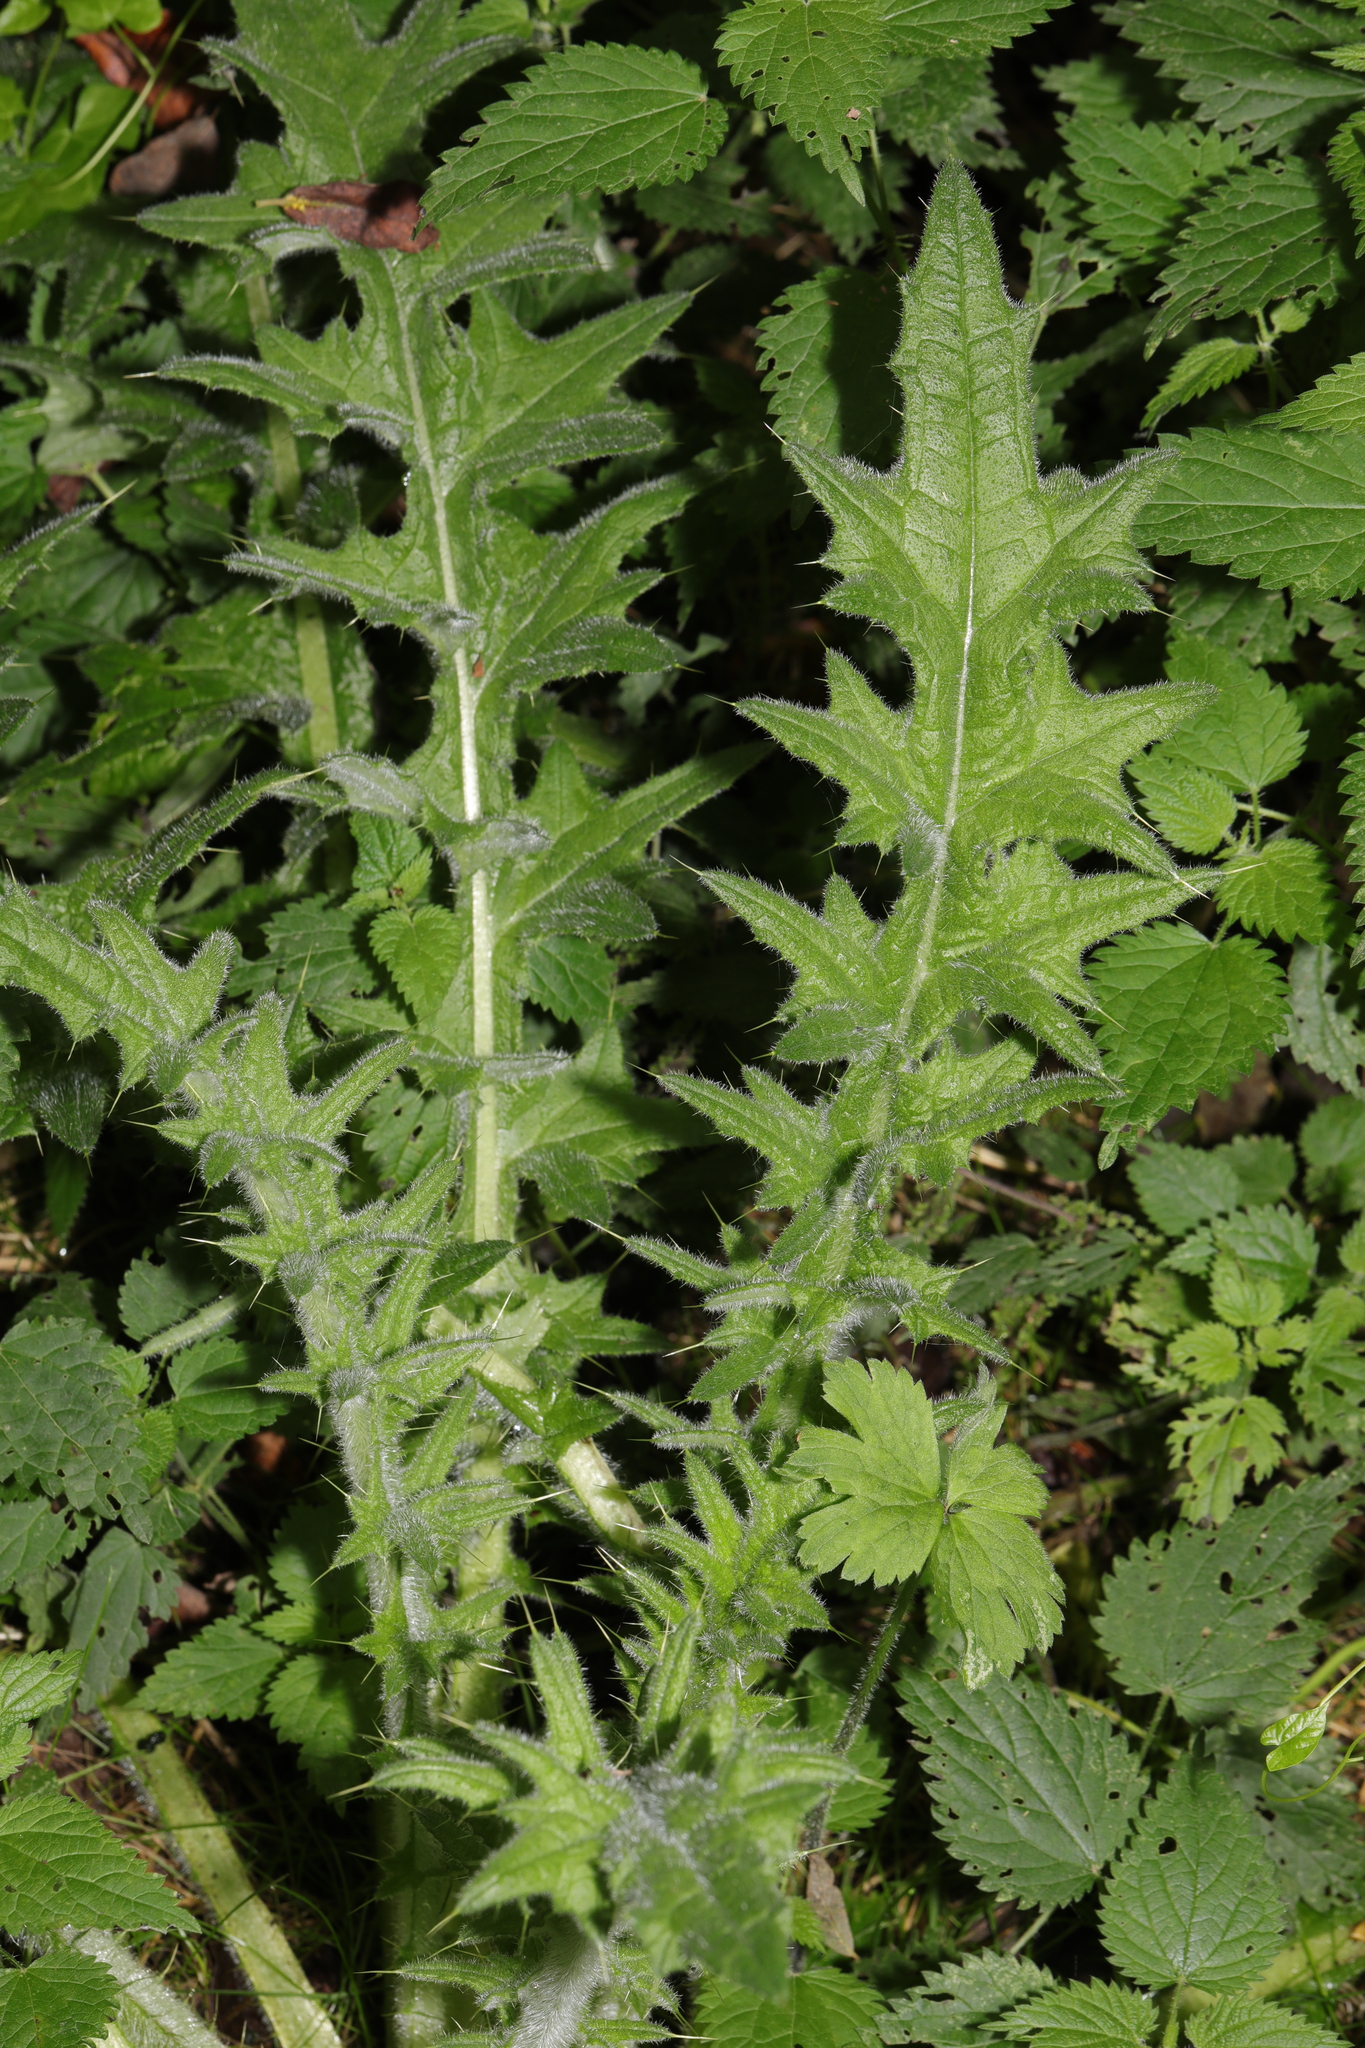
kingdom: Plantae
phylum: Tracheophyta
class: Magnoliopsida
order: Asterales
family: Asteraceae
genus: Cirsium
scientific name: Cirsium vulgare
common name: Bull thistle
